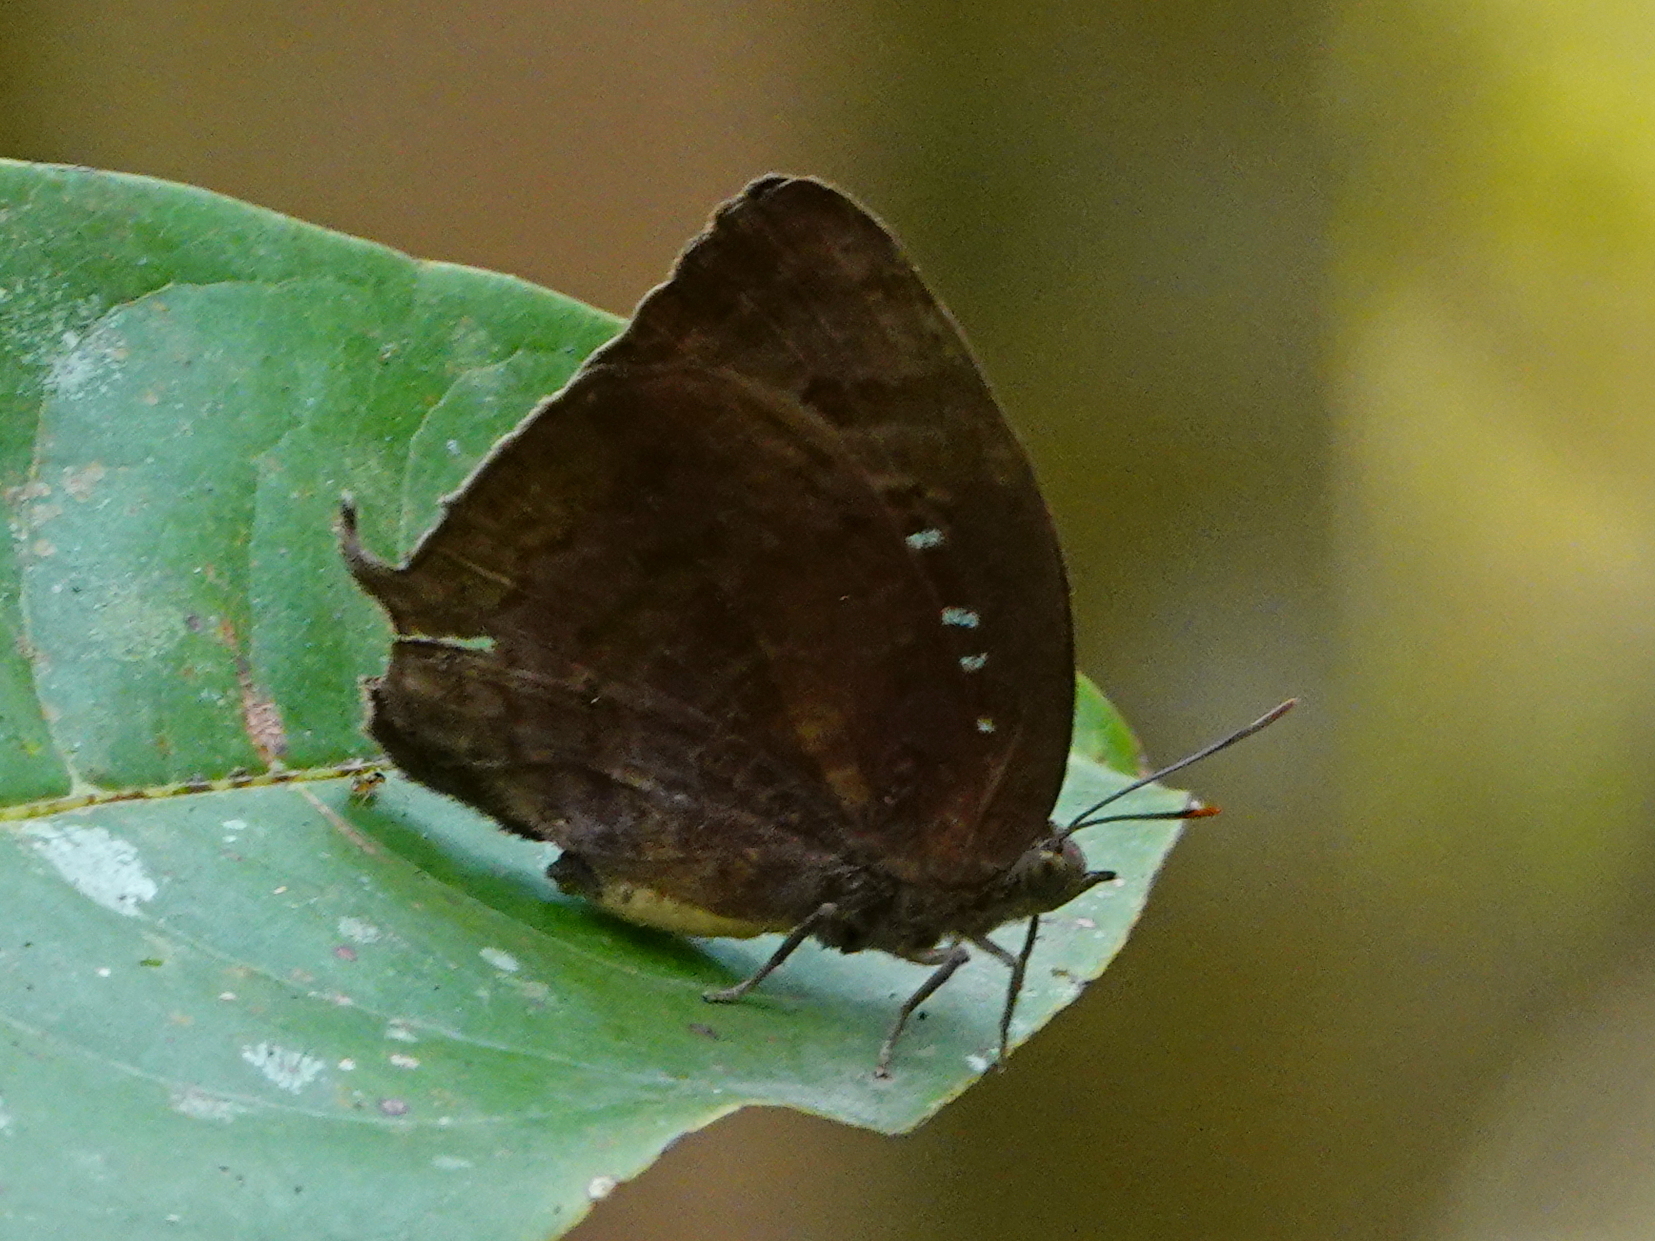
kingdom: Animalia
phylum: Arthropoda
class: Insecta
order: Lepidoptera
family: Lycaenidae
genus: Arhopala
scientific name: Arhopala centaurus
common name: Dull oak-blue
